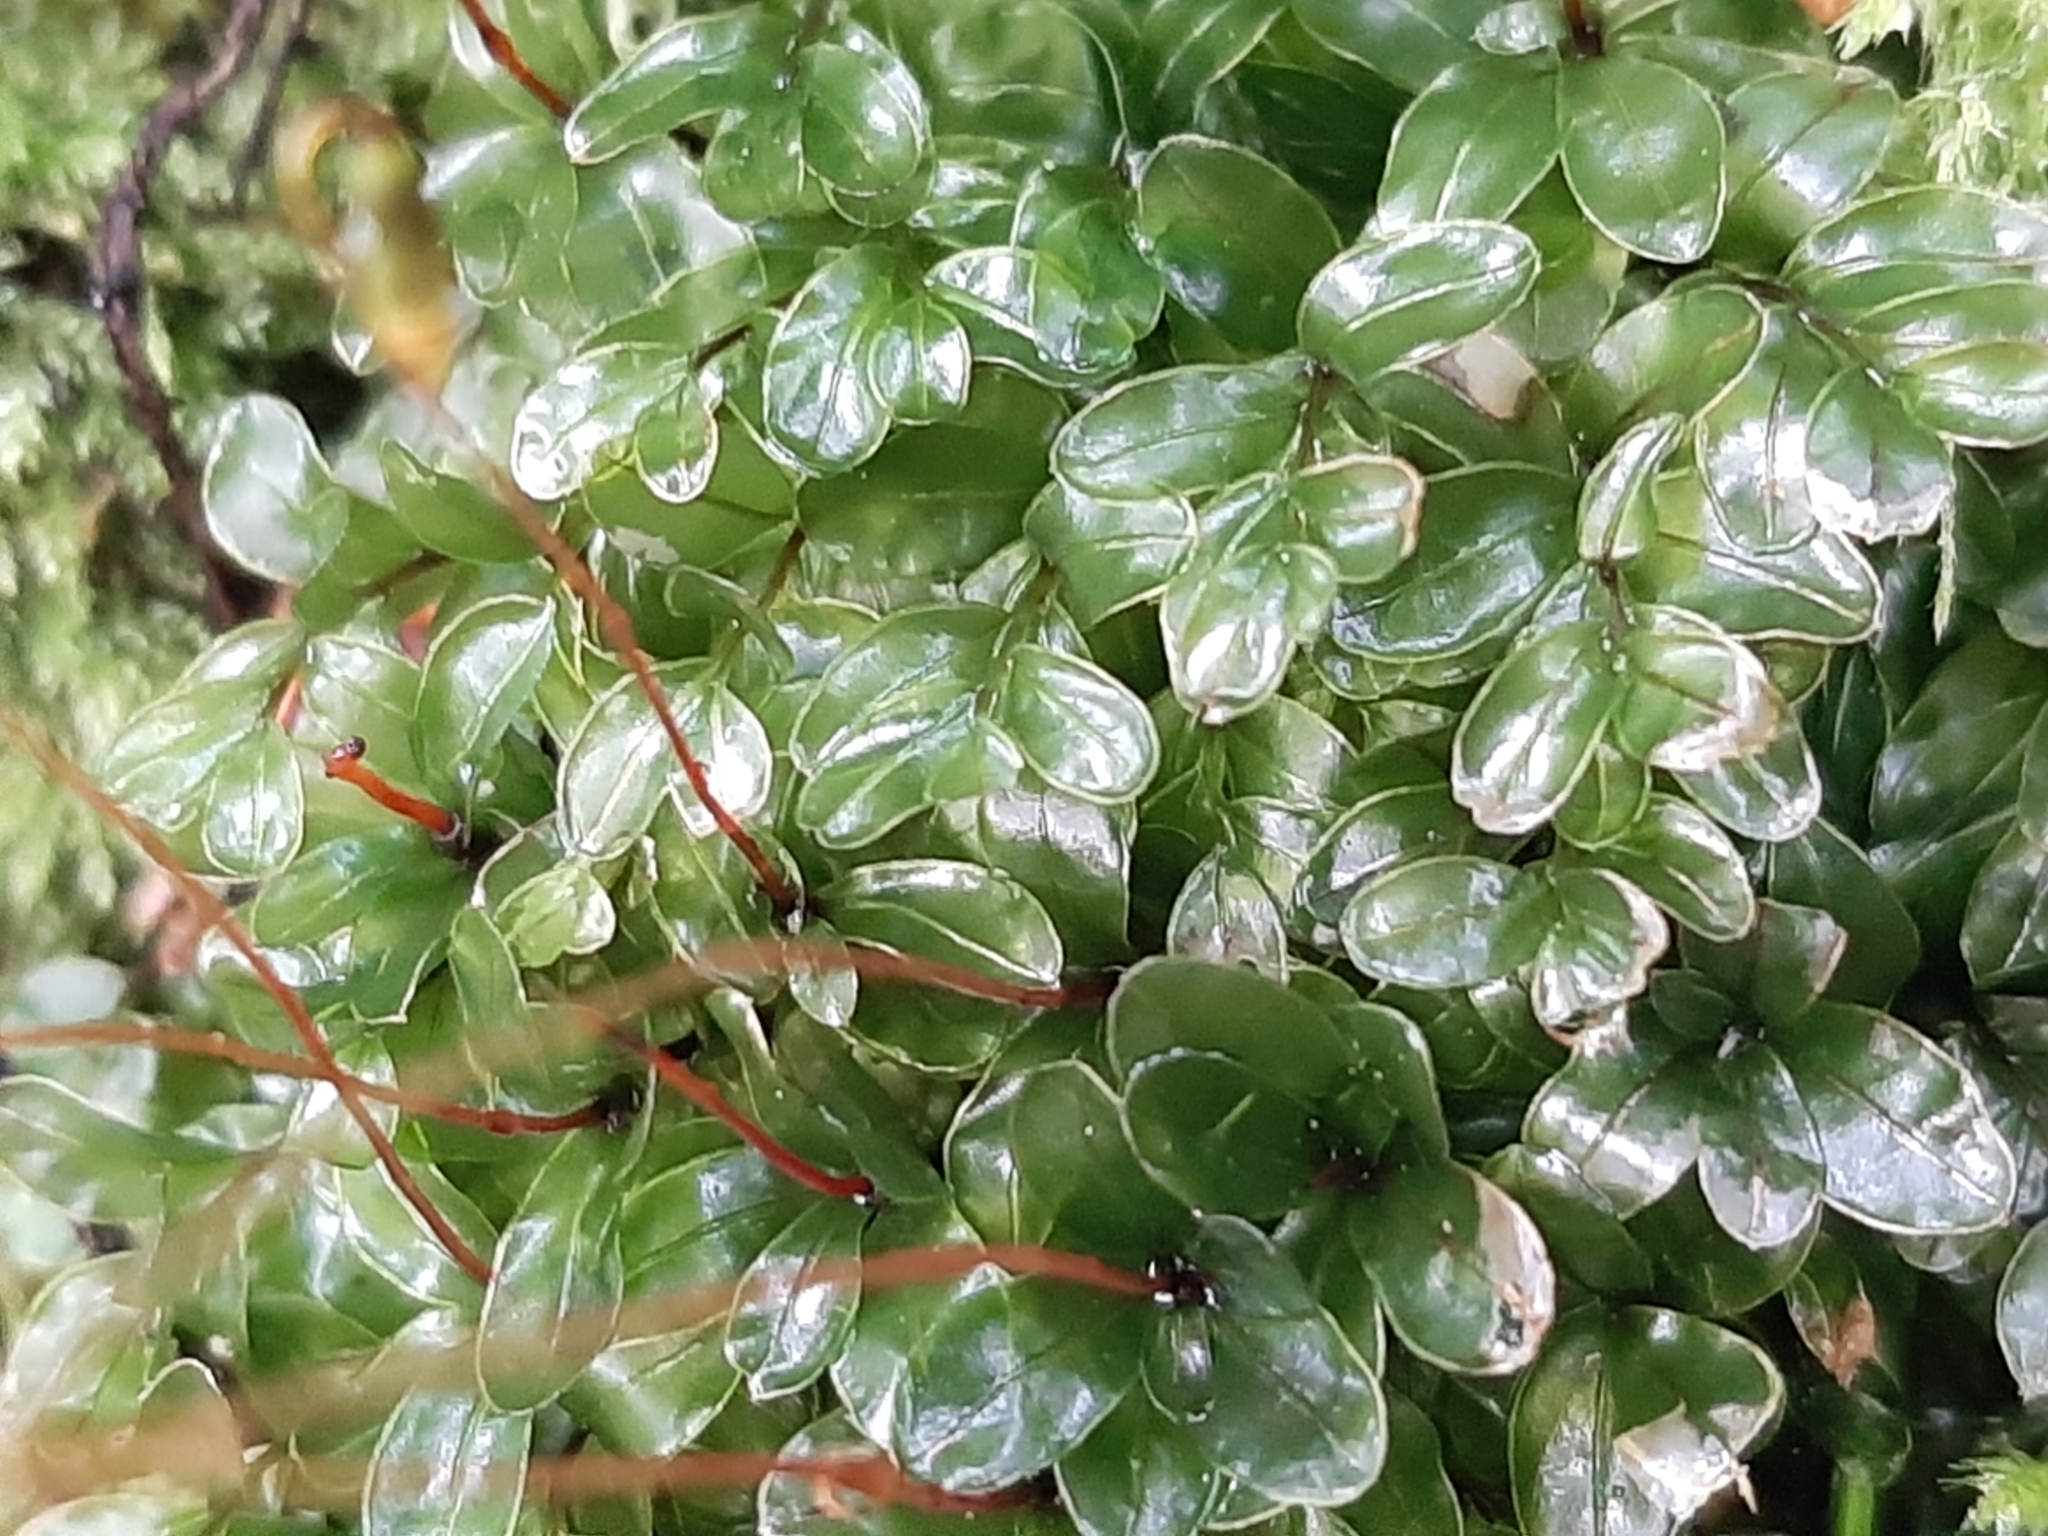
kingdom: Plantae
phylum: Bryophyta
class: Bryopsida
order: Bryales
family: Mniaceae
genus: Rhizomnium
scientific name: Rhizomnium glabrescens
